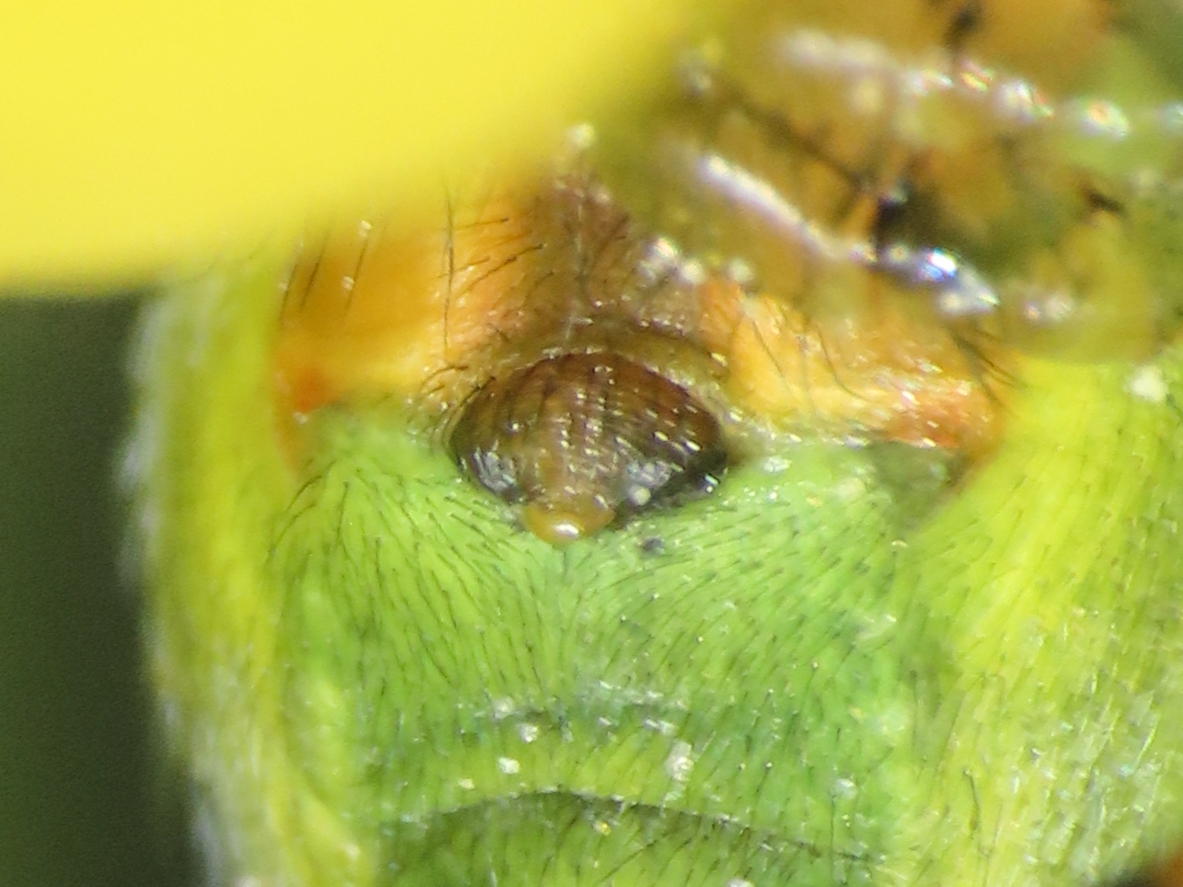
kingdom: Animalia
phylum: Arthropoda
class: Arachnida
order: Araneae
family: Araneidae
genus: Araniella
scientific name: Araniella cucurbitina
